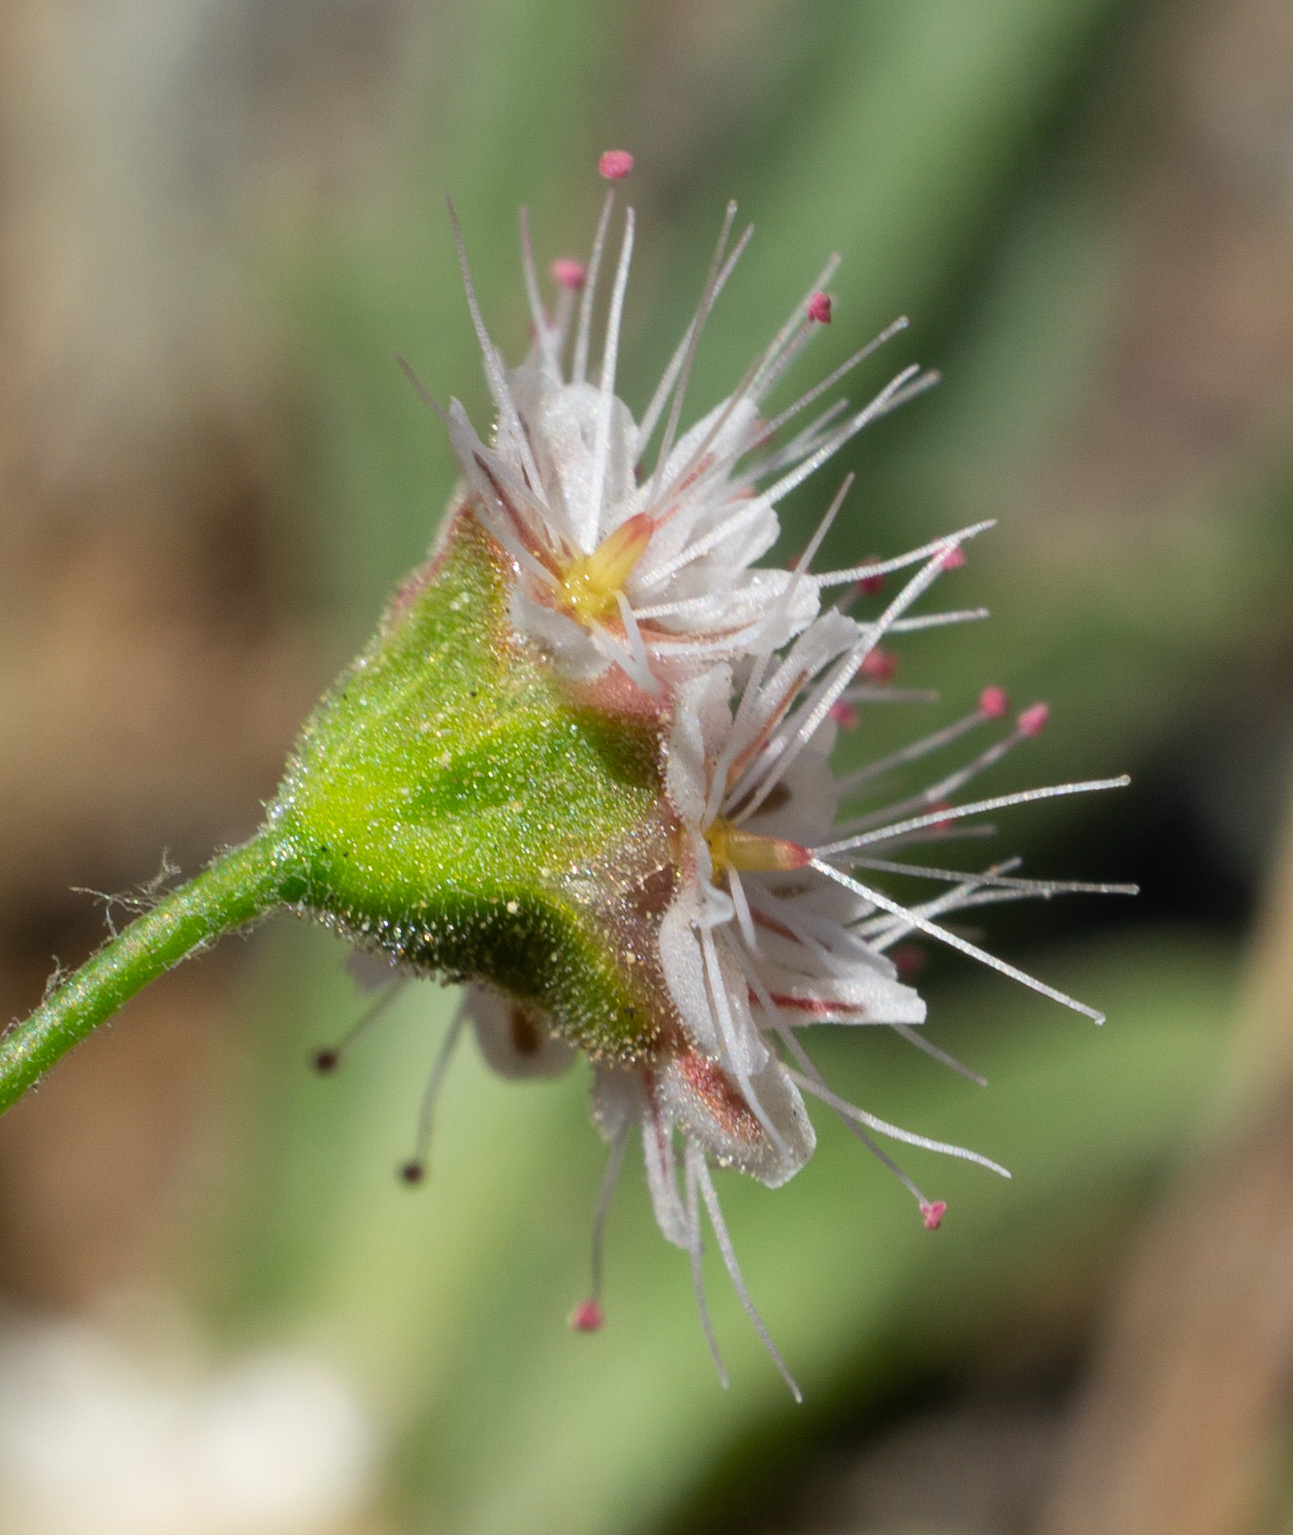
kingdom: Plantae
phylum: Tracheophyta
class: Magnoliopsida
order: Caryophyllales
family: Polygonaceae
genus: Eriogonum
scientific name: Eriogonum angulosum
